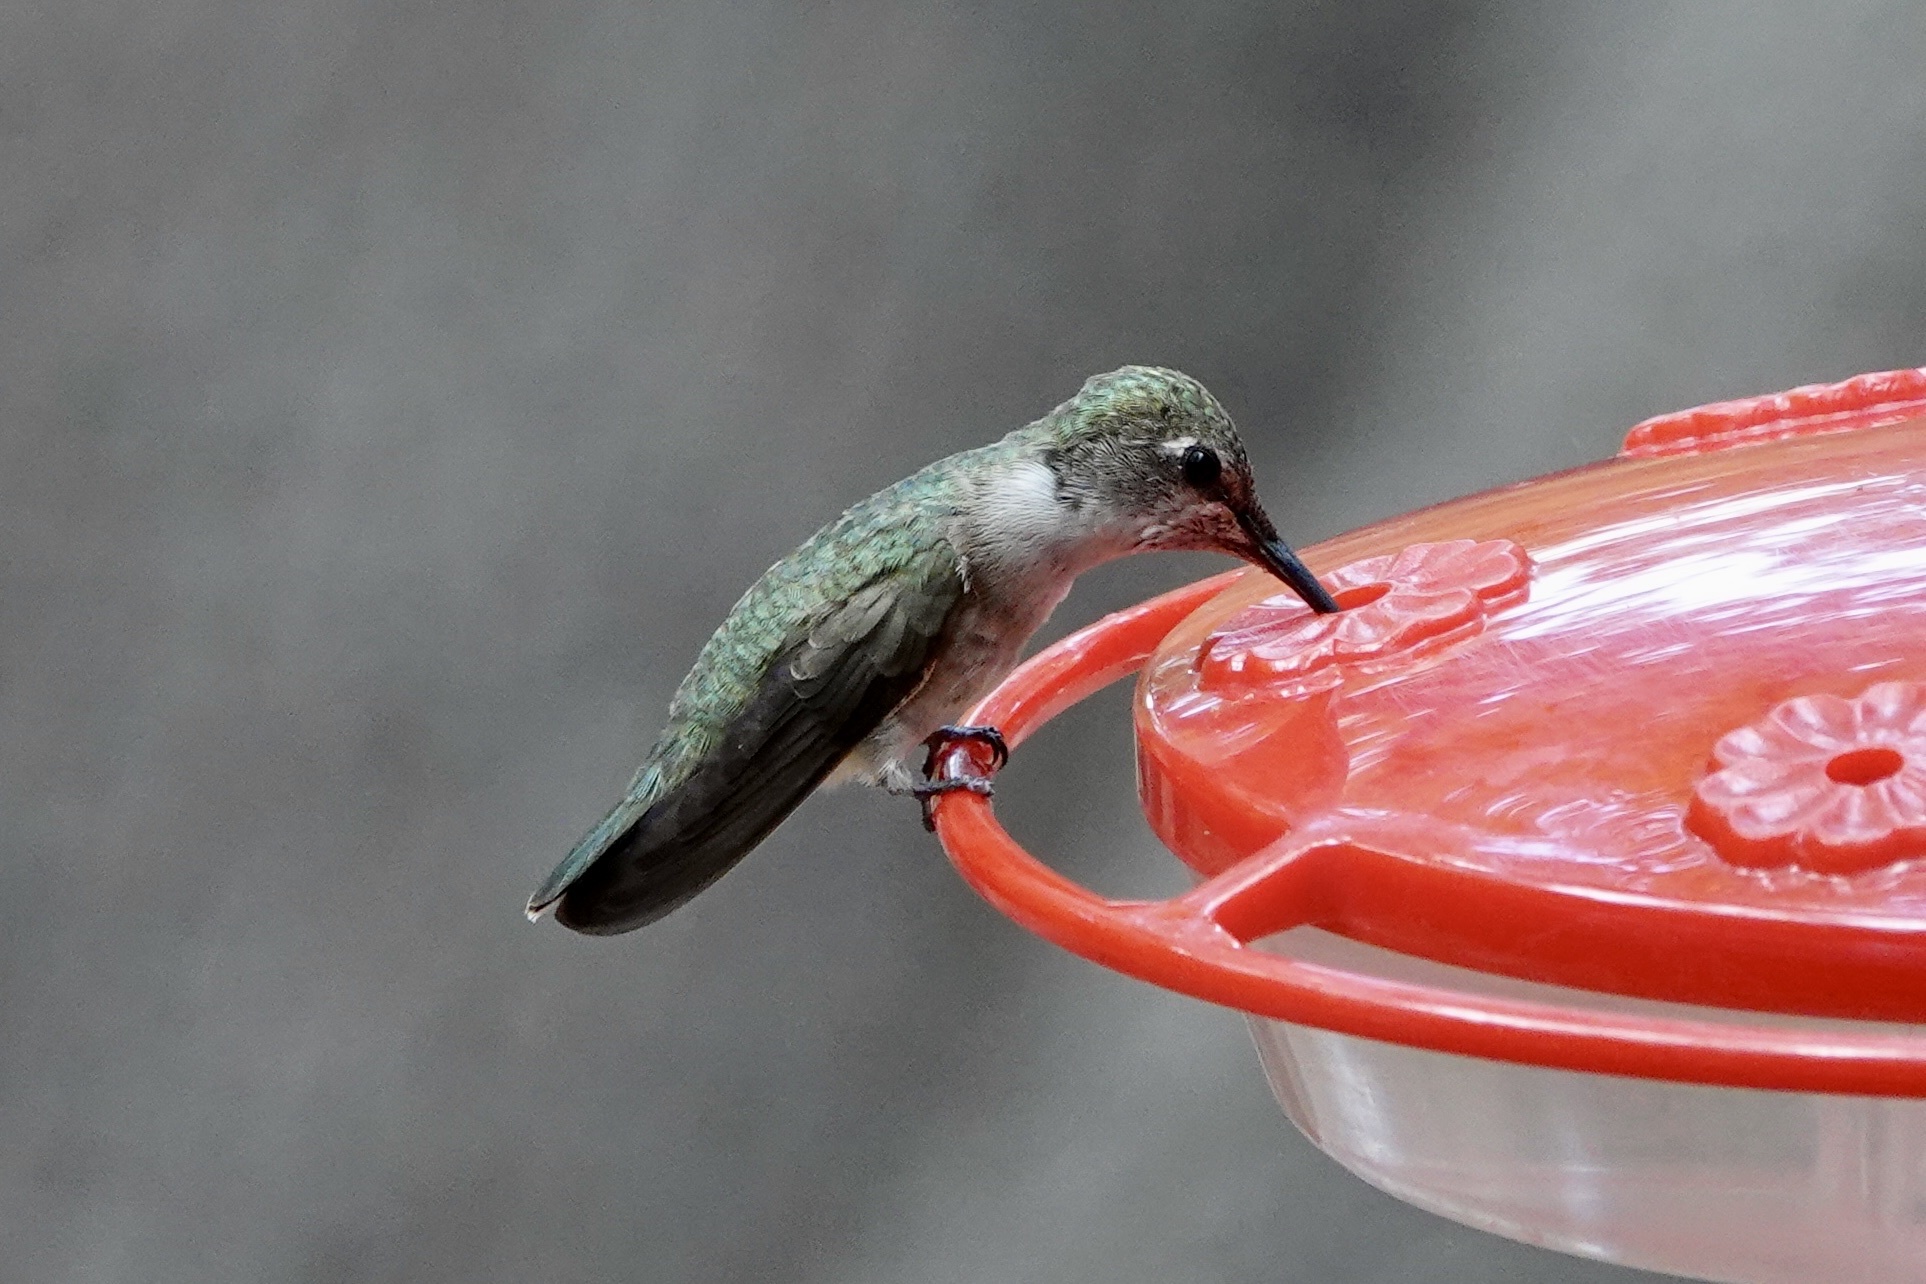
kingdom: Animalia
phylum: Chordata
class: Aves
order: Apodiformes
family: Trochilidae
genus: Archilochus
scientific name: Archilochus alexandri
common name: Black-chinned hummingbird
